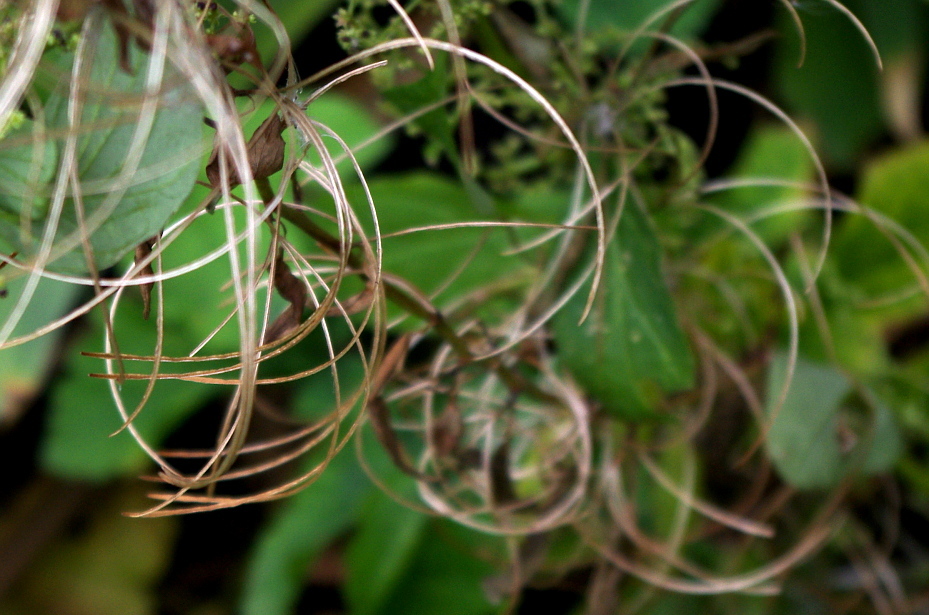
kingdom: Plantae
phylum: Tracheophyta
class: Magnoliopsida
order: Myrtales
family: Onagraceae
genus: Chamaenerion
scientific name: Chamaenerion angustifolium
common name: Fireweed
